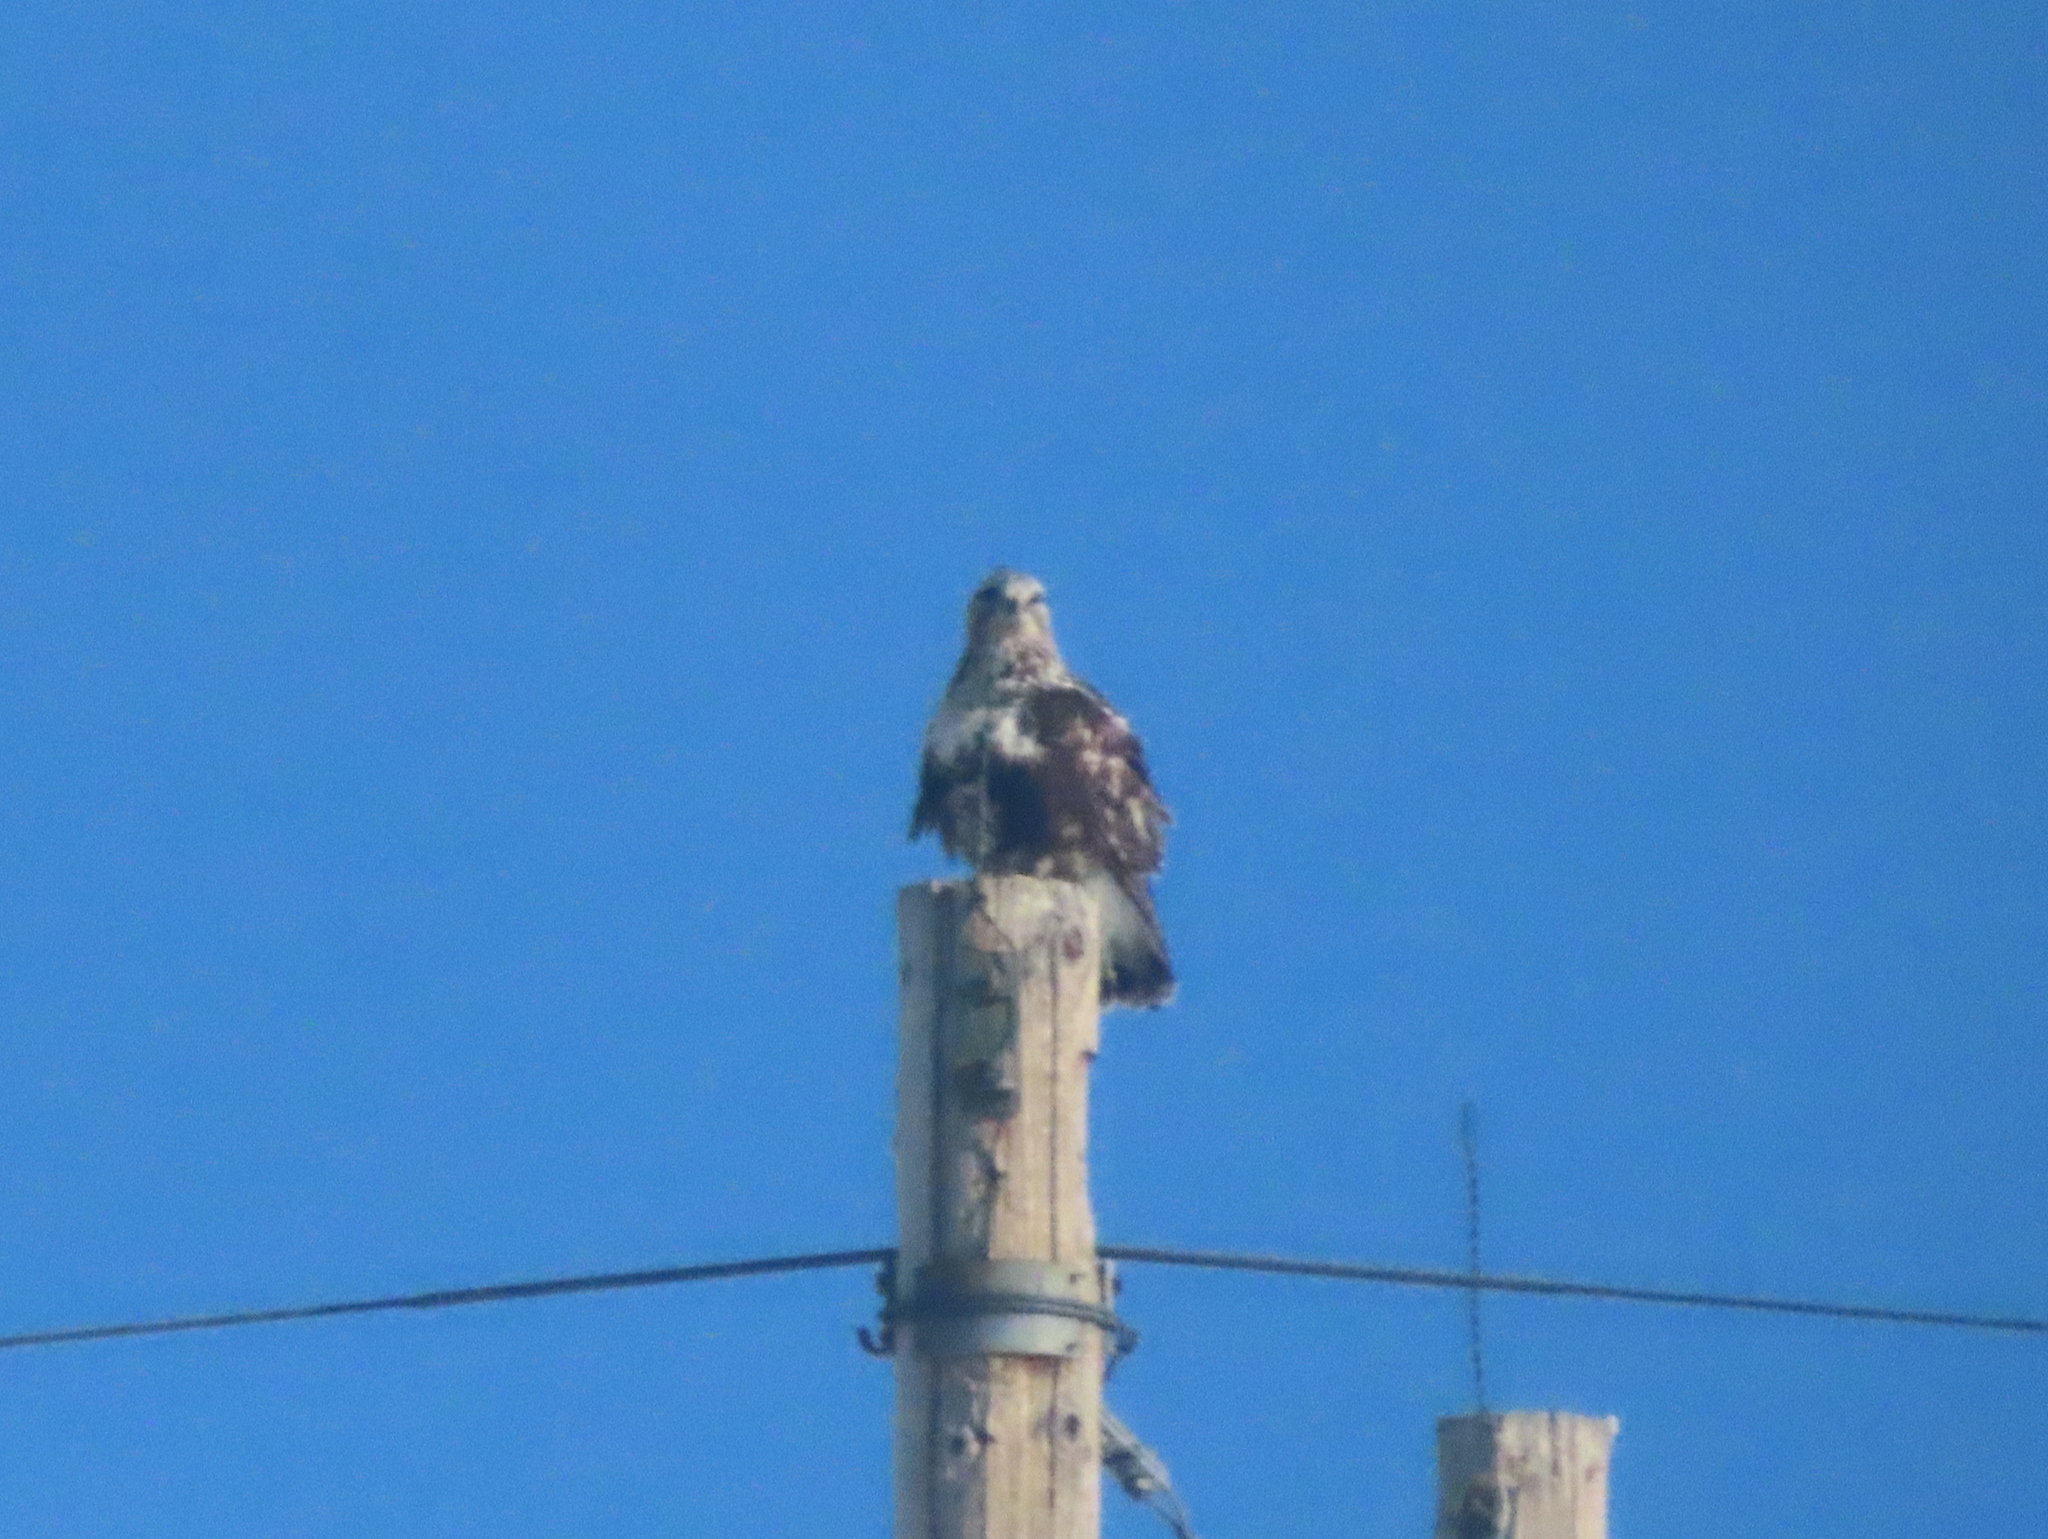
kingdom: Animalia
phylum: Chordata
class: Aves
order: Accipitriformes
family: Accipitridae
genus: Buteo
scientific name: Buteo lagopus
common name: Rough-legged buzzard
